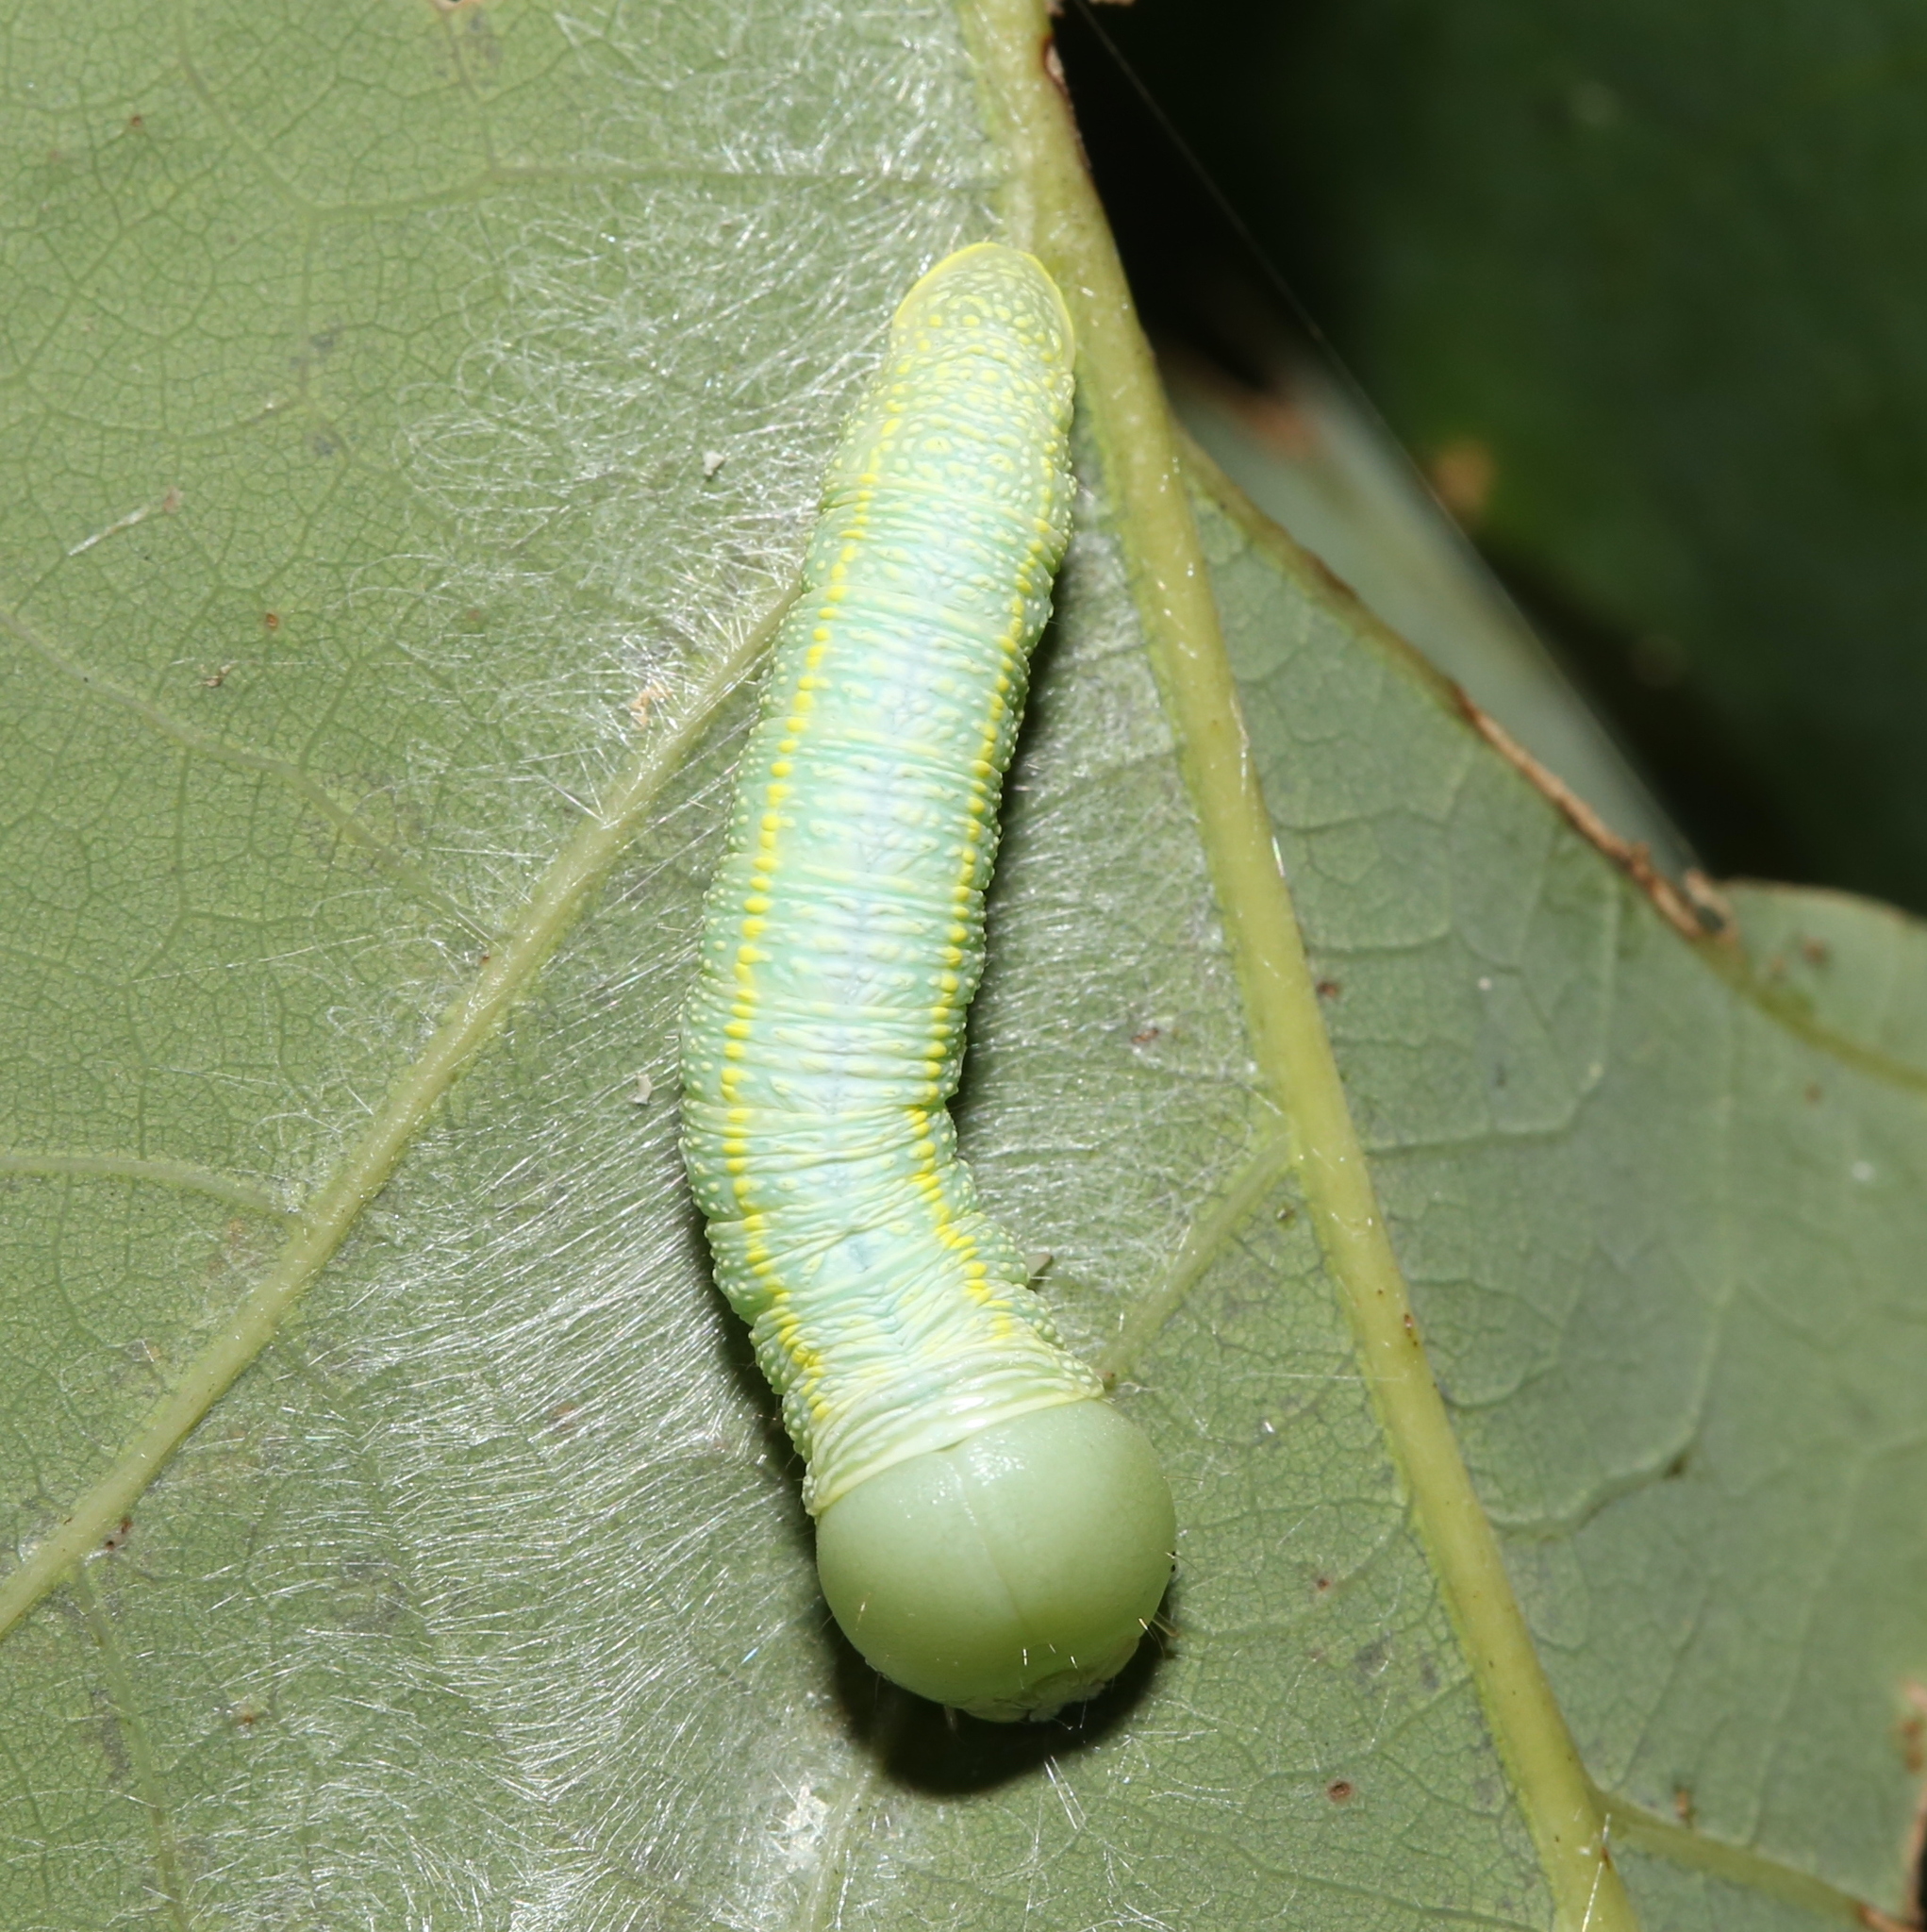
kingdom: Animalia
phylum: Arthropoda
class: Insecta
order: Lepidoptera
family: Notodontidae
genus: Nadata
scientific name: Nadata gibbosa
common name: White-dotted prominent
